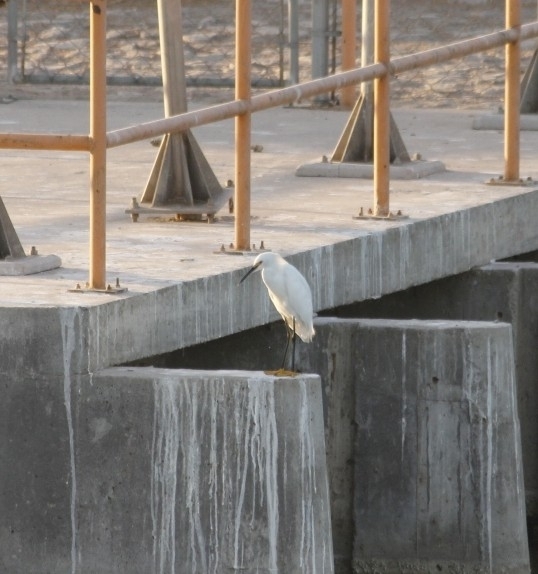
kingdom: Animalia
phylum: Chordata
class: Aves
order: Pelecaniformes
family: Ardeidae
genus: Egretta
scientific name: Egretta thula
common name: Snowy egret
